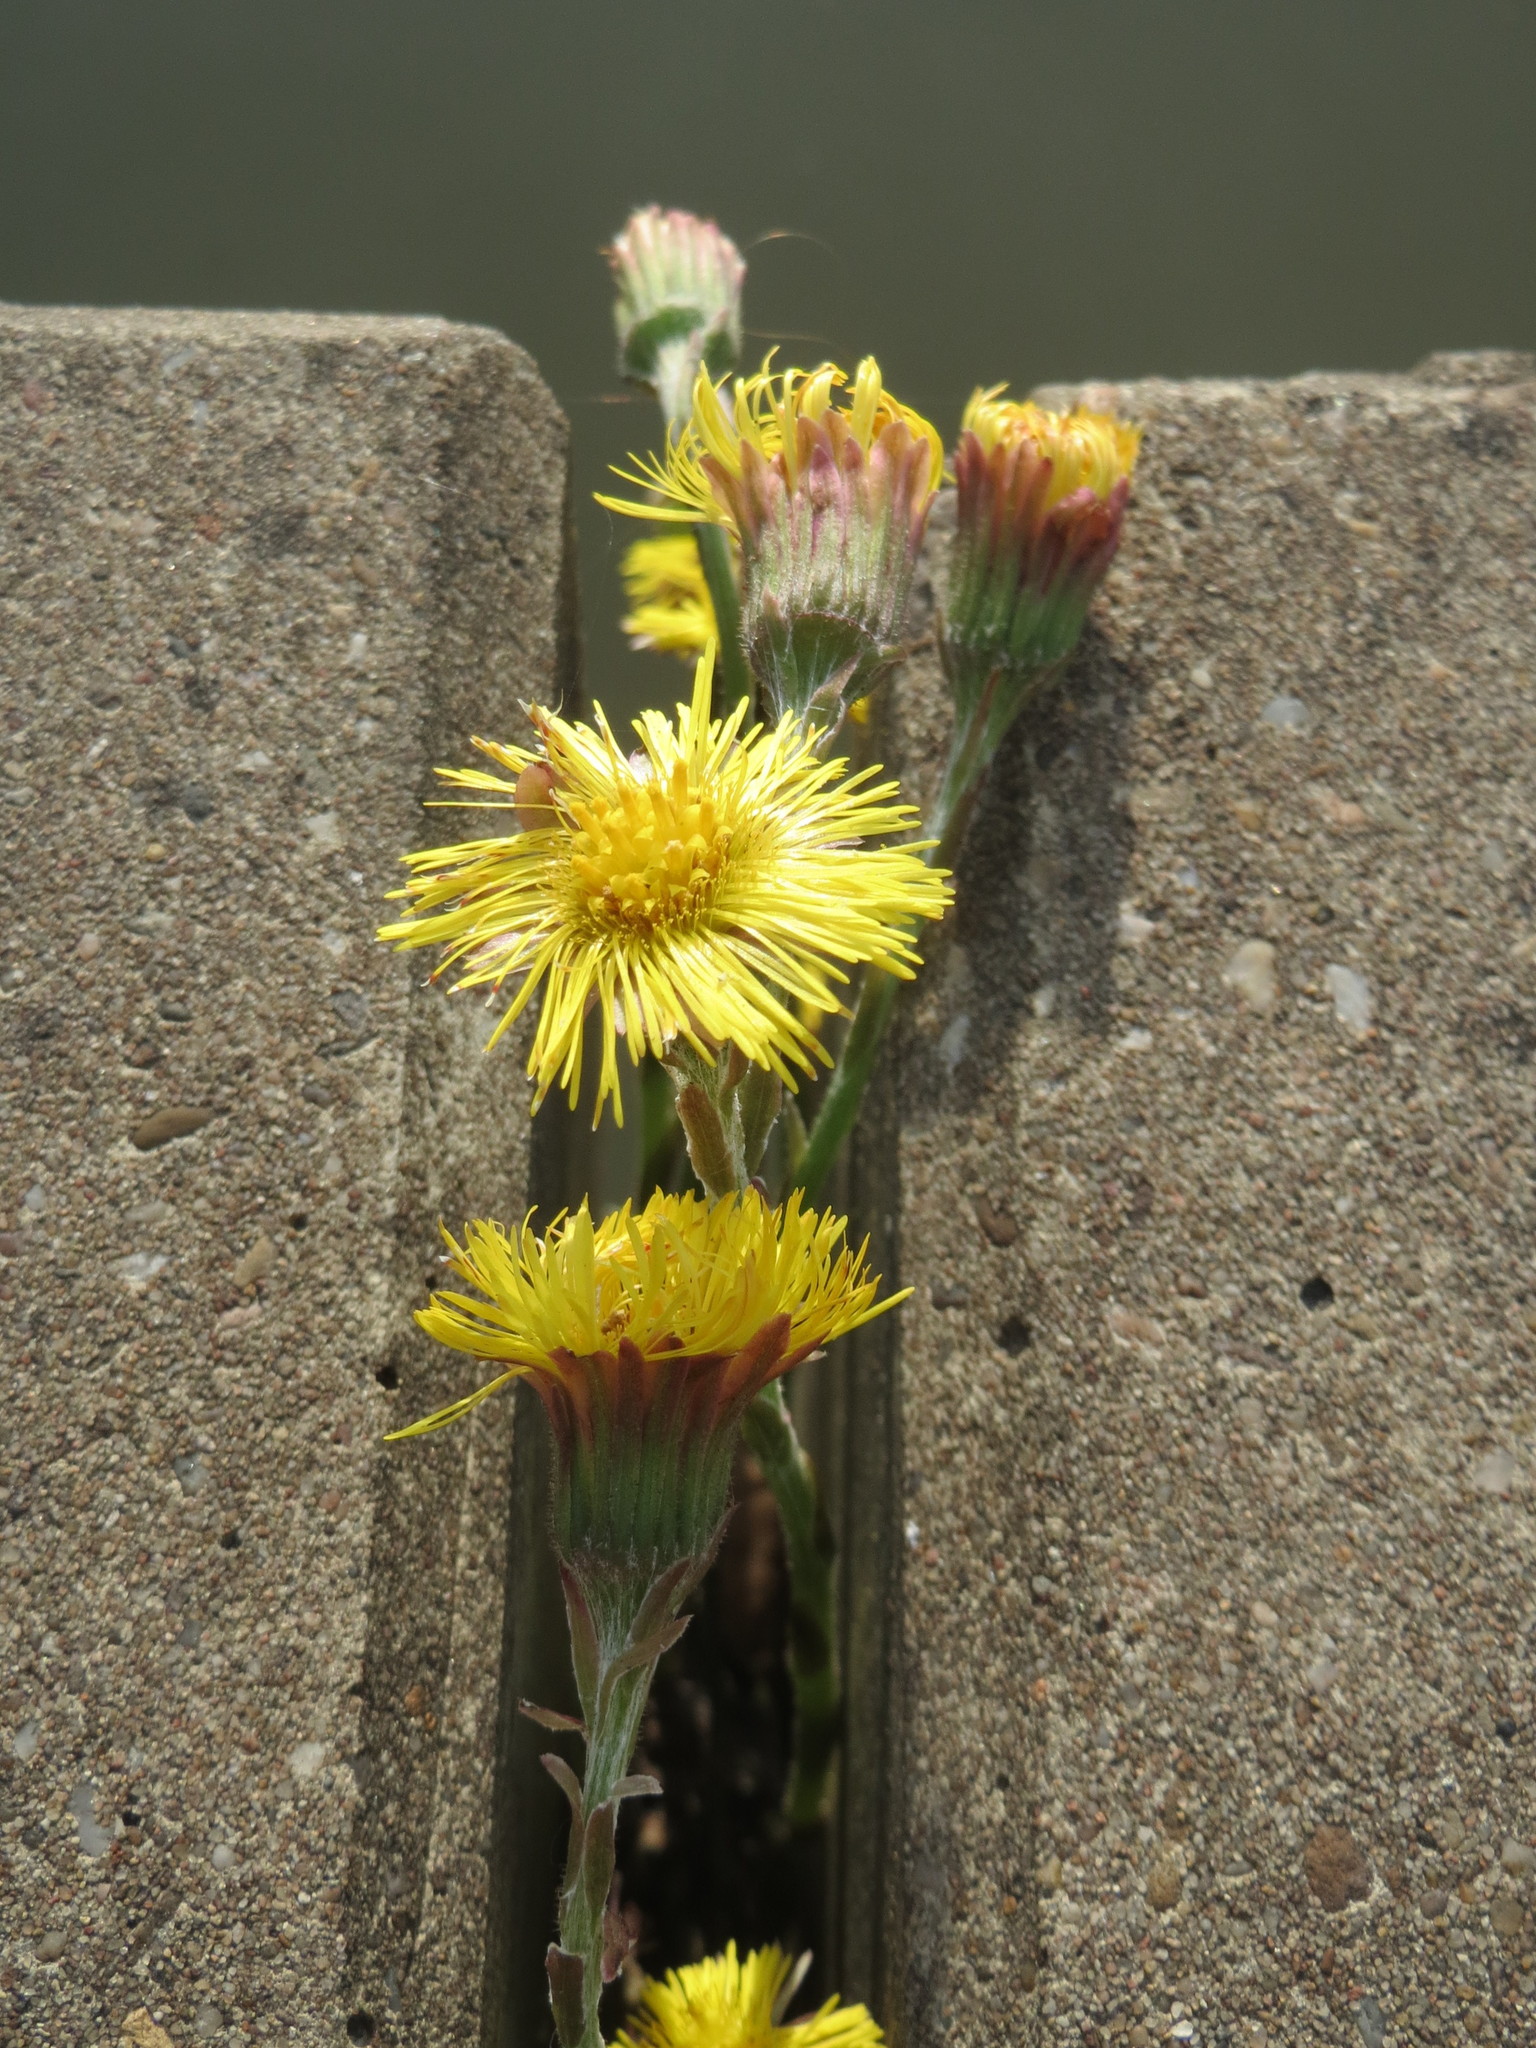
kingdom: Plantae
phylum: Tracheophyta
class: Magnoliopsida
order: Asterales
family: Asteraceae
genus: Tussilago
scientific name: Tussilago farfara
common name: Coltsfoot
